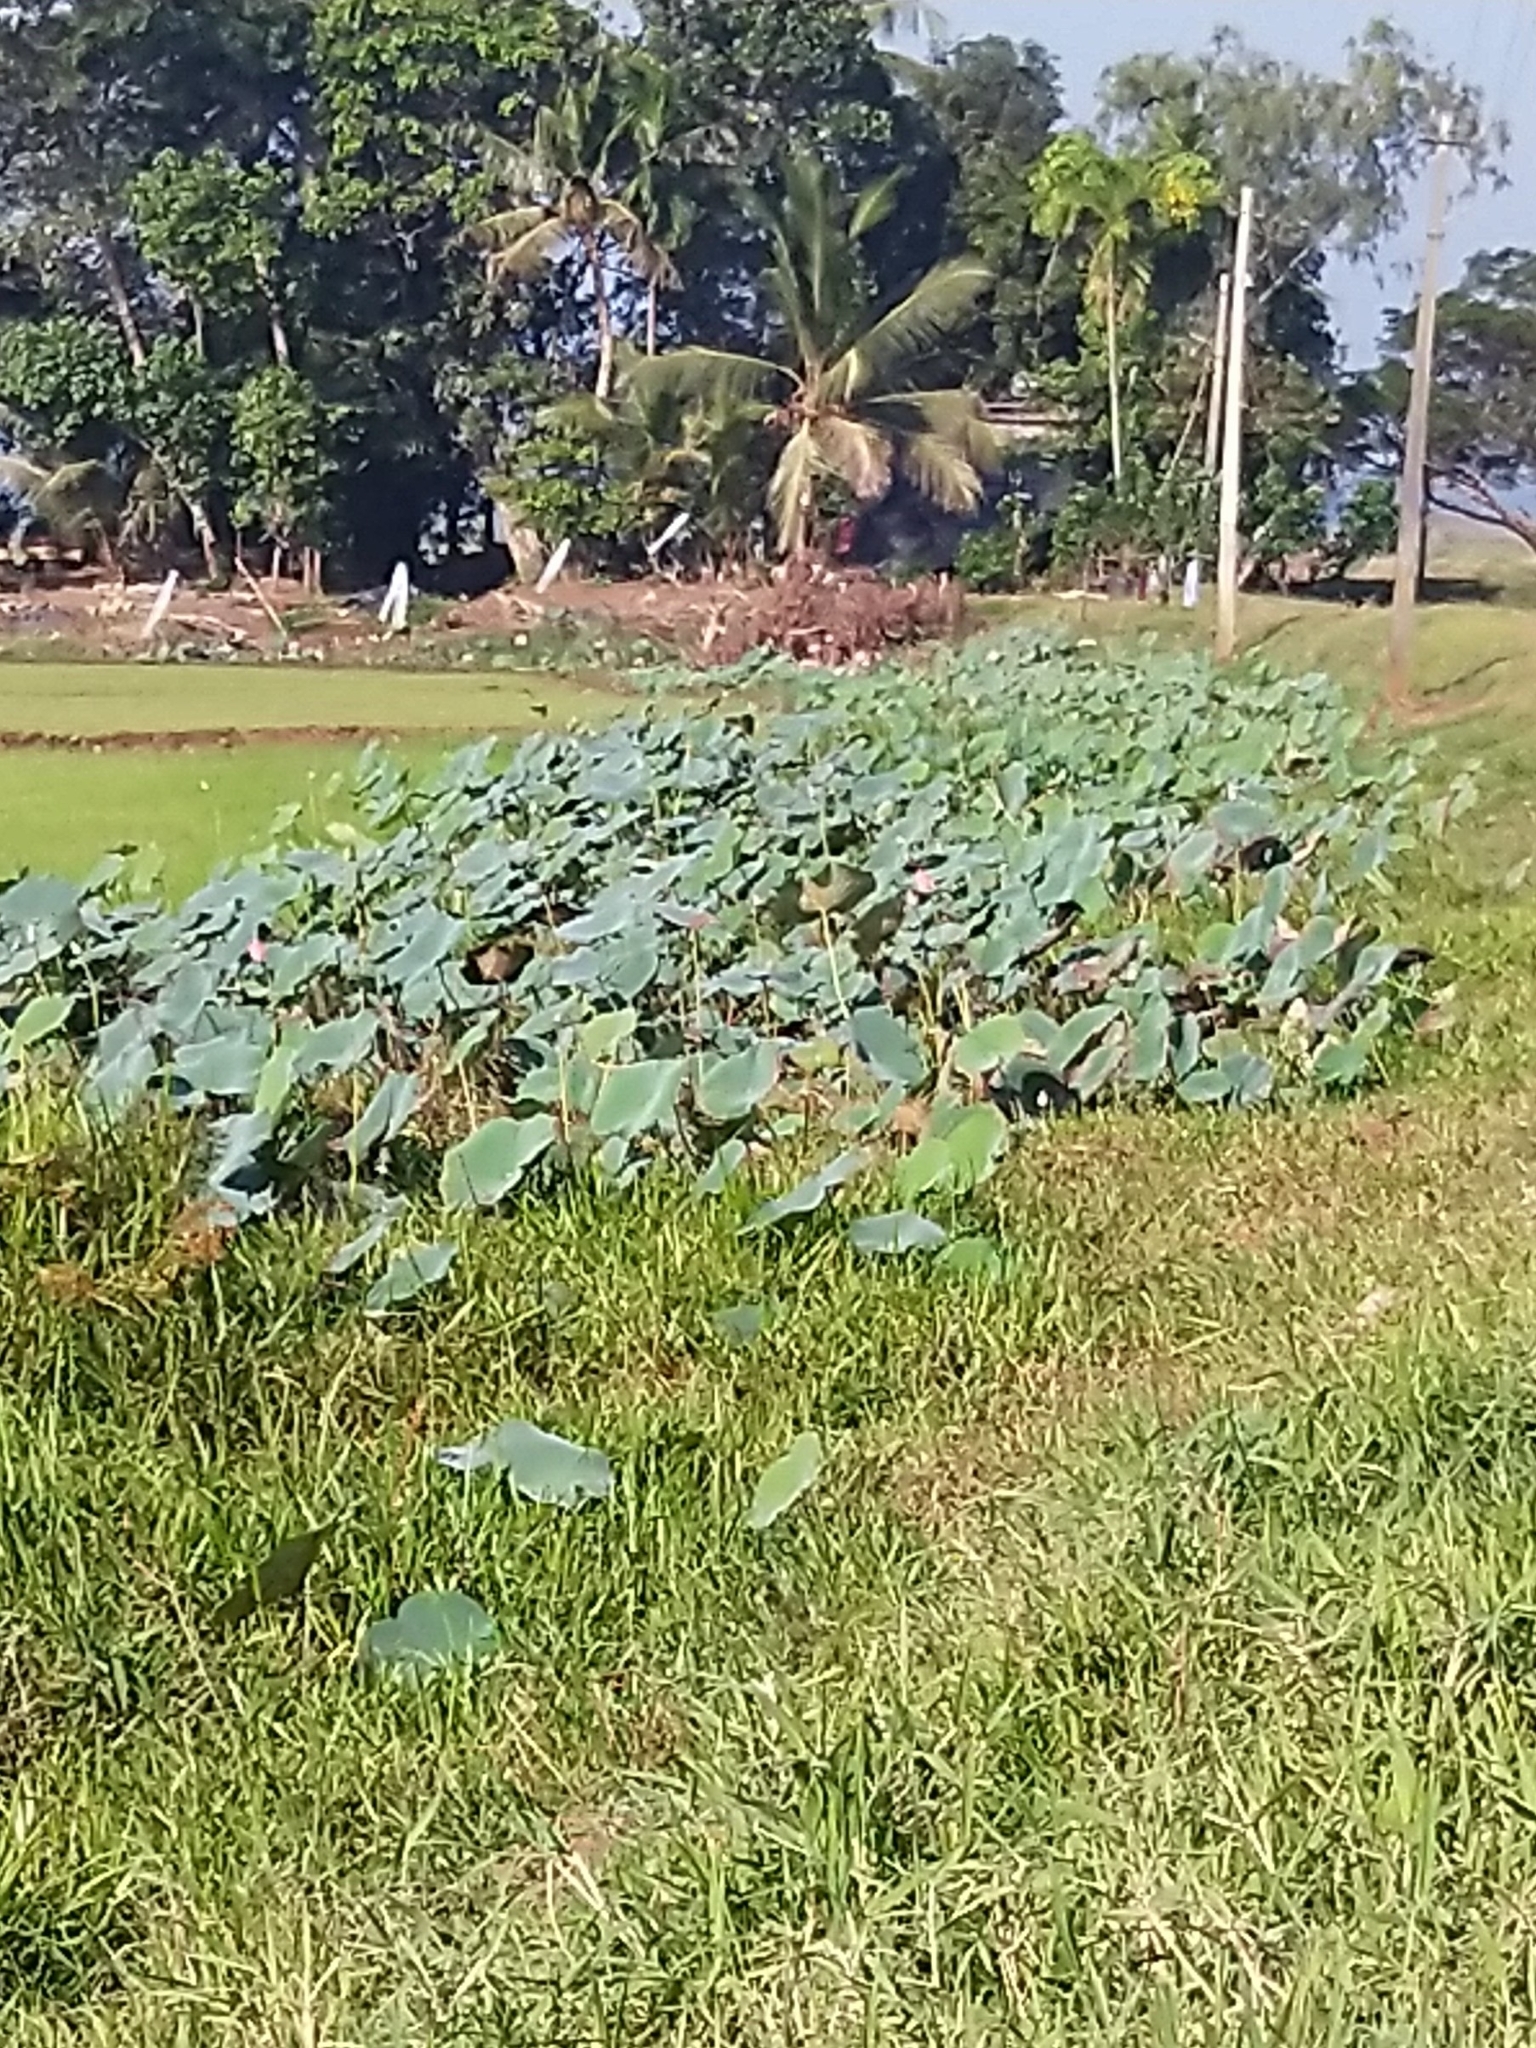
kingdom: Plantae
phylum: Tracheophyta
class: Magnoliopsida
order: Proteales
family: Nelumbonaceae
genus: Nelumbo
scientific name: Nelumbo nucifera
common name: Sacred lotus
